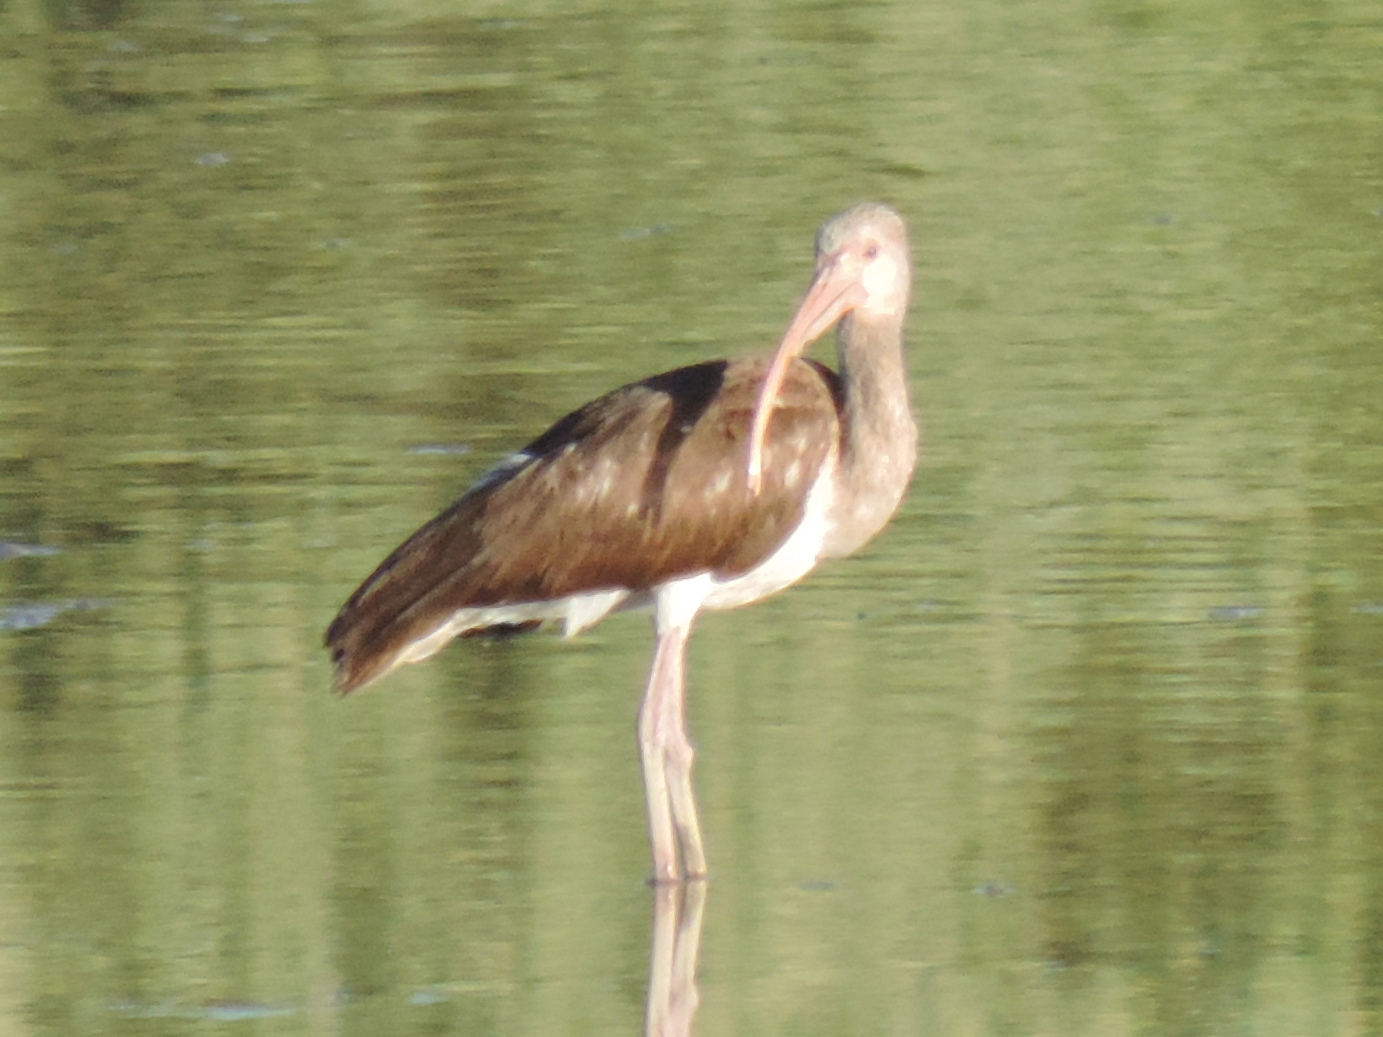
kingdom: Animalia
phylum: Chordata
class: Aves
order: Pelecaniformes
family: Threskiornithidae
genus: Eudocimus
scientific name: Eudocimus albus
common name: White ibis
